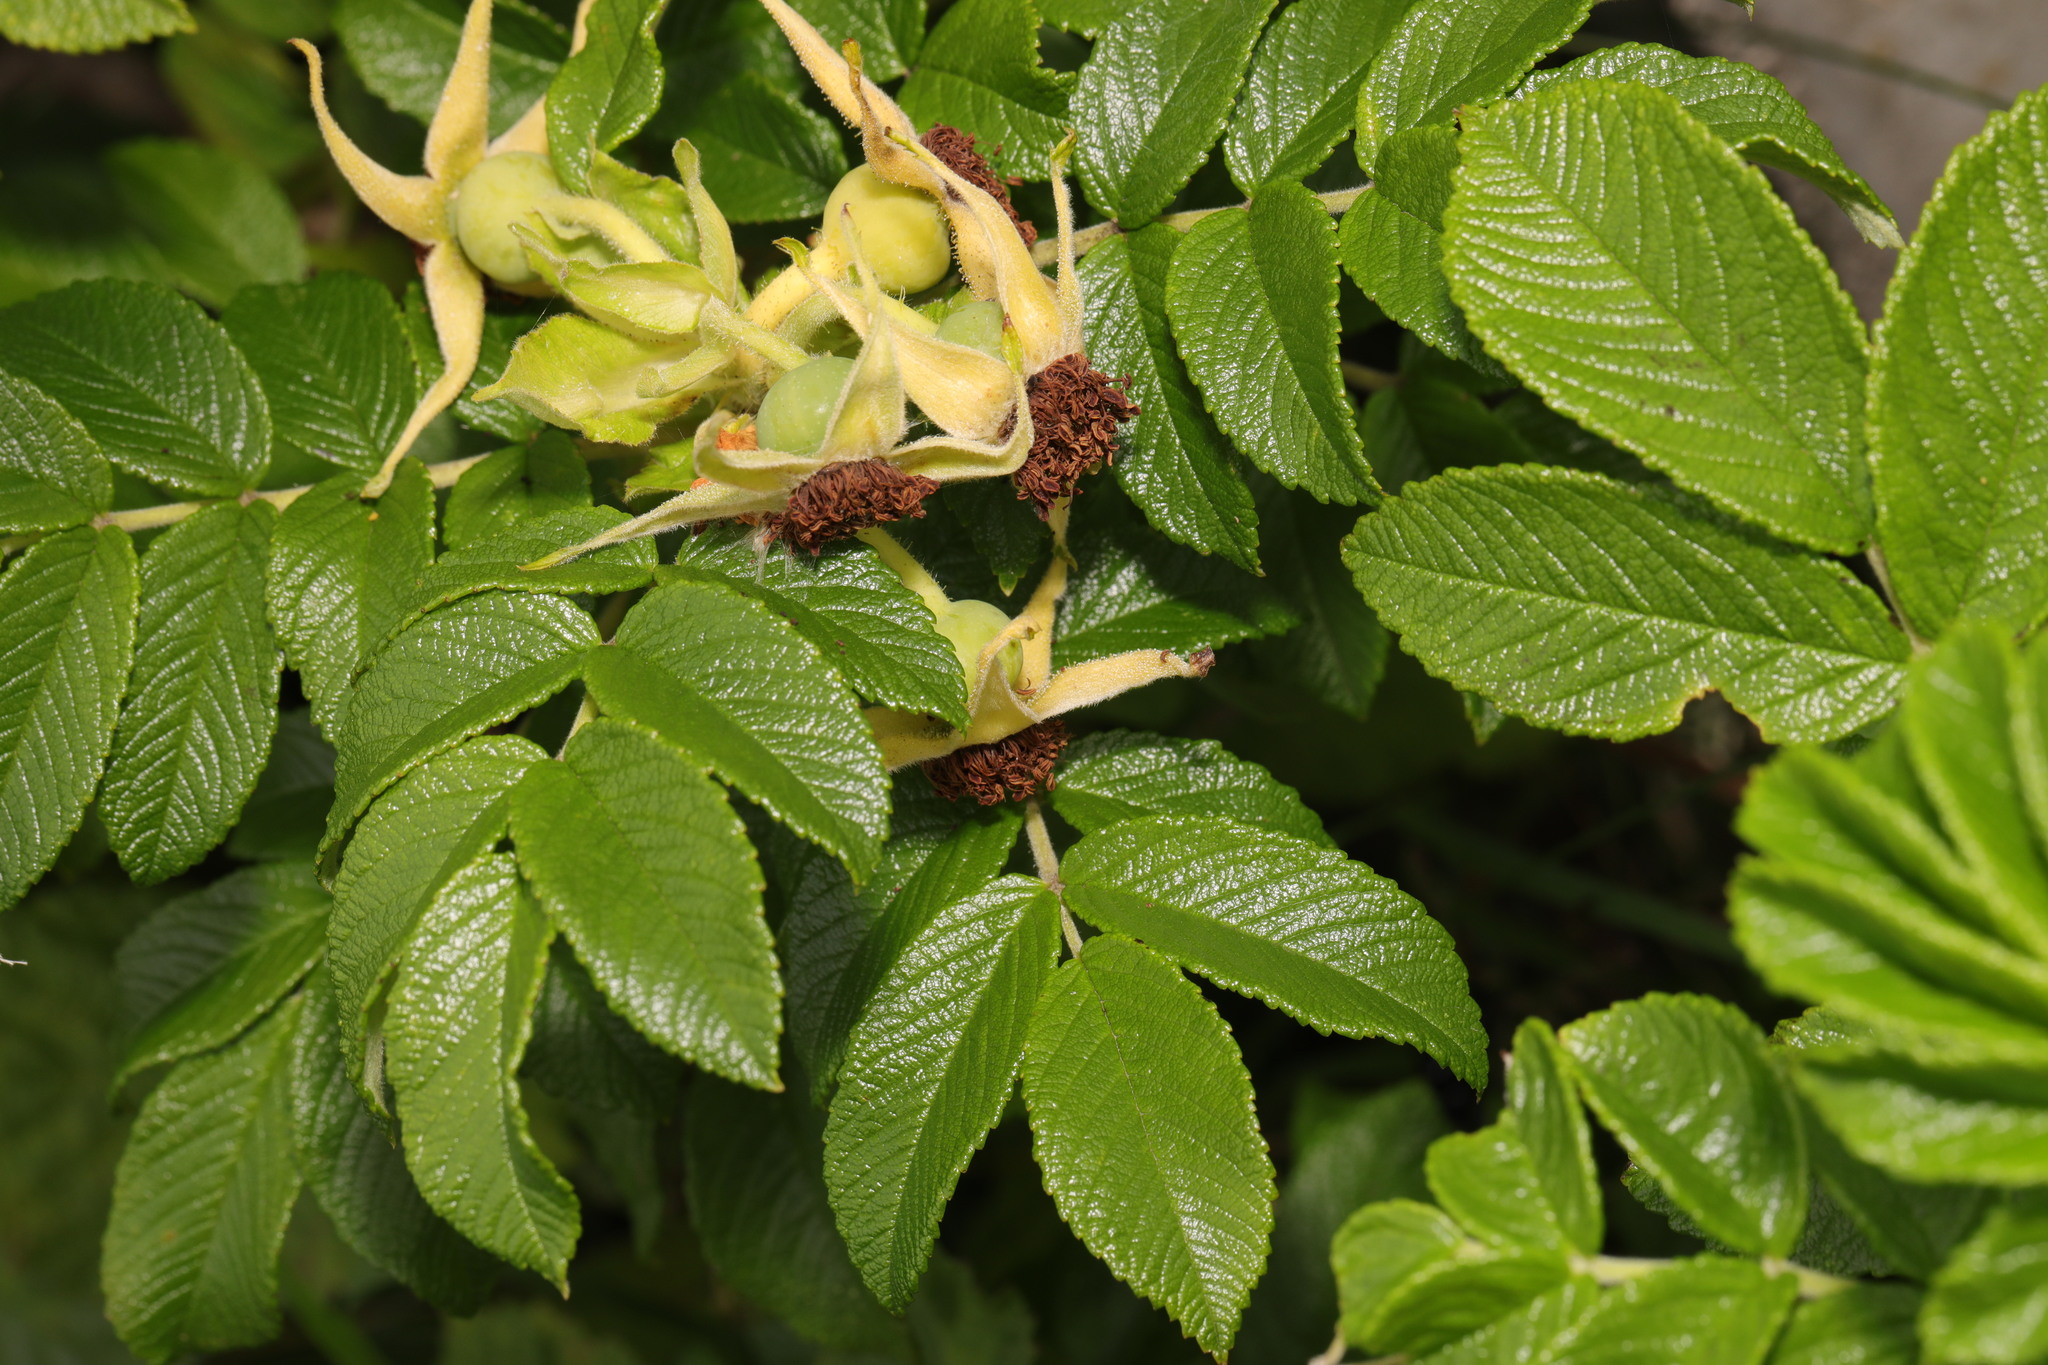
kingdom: Plantae
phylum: Tracheophyta
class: Magnoliopsida
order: Rosales
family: Rosaceae
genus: Rosa
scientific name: Rosa rugosa
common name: Japanese rose
